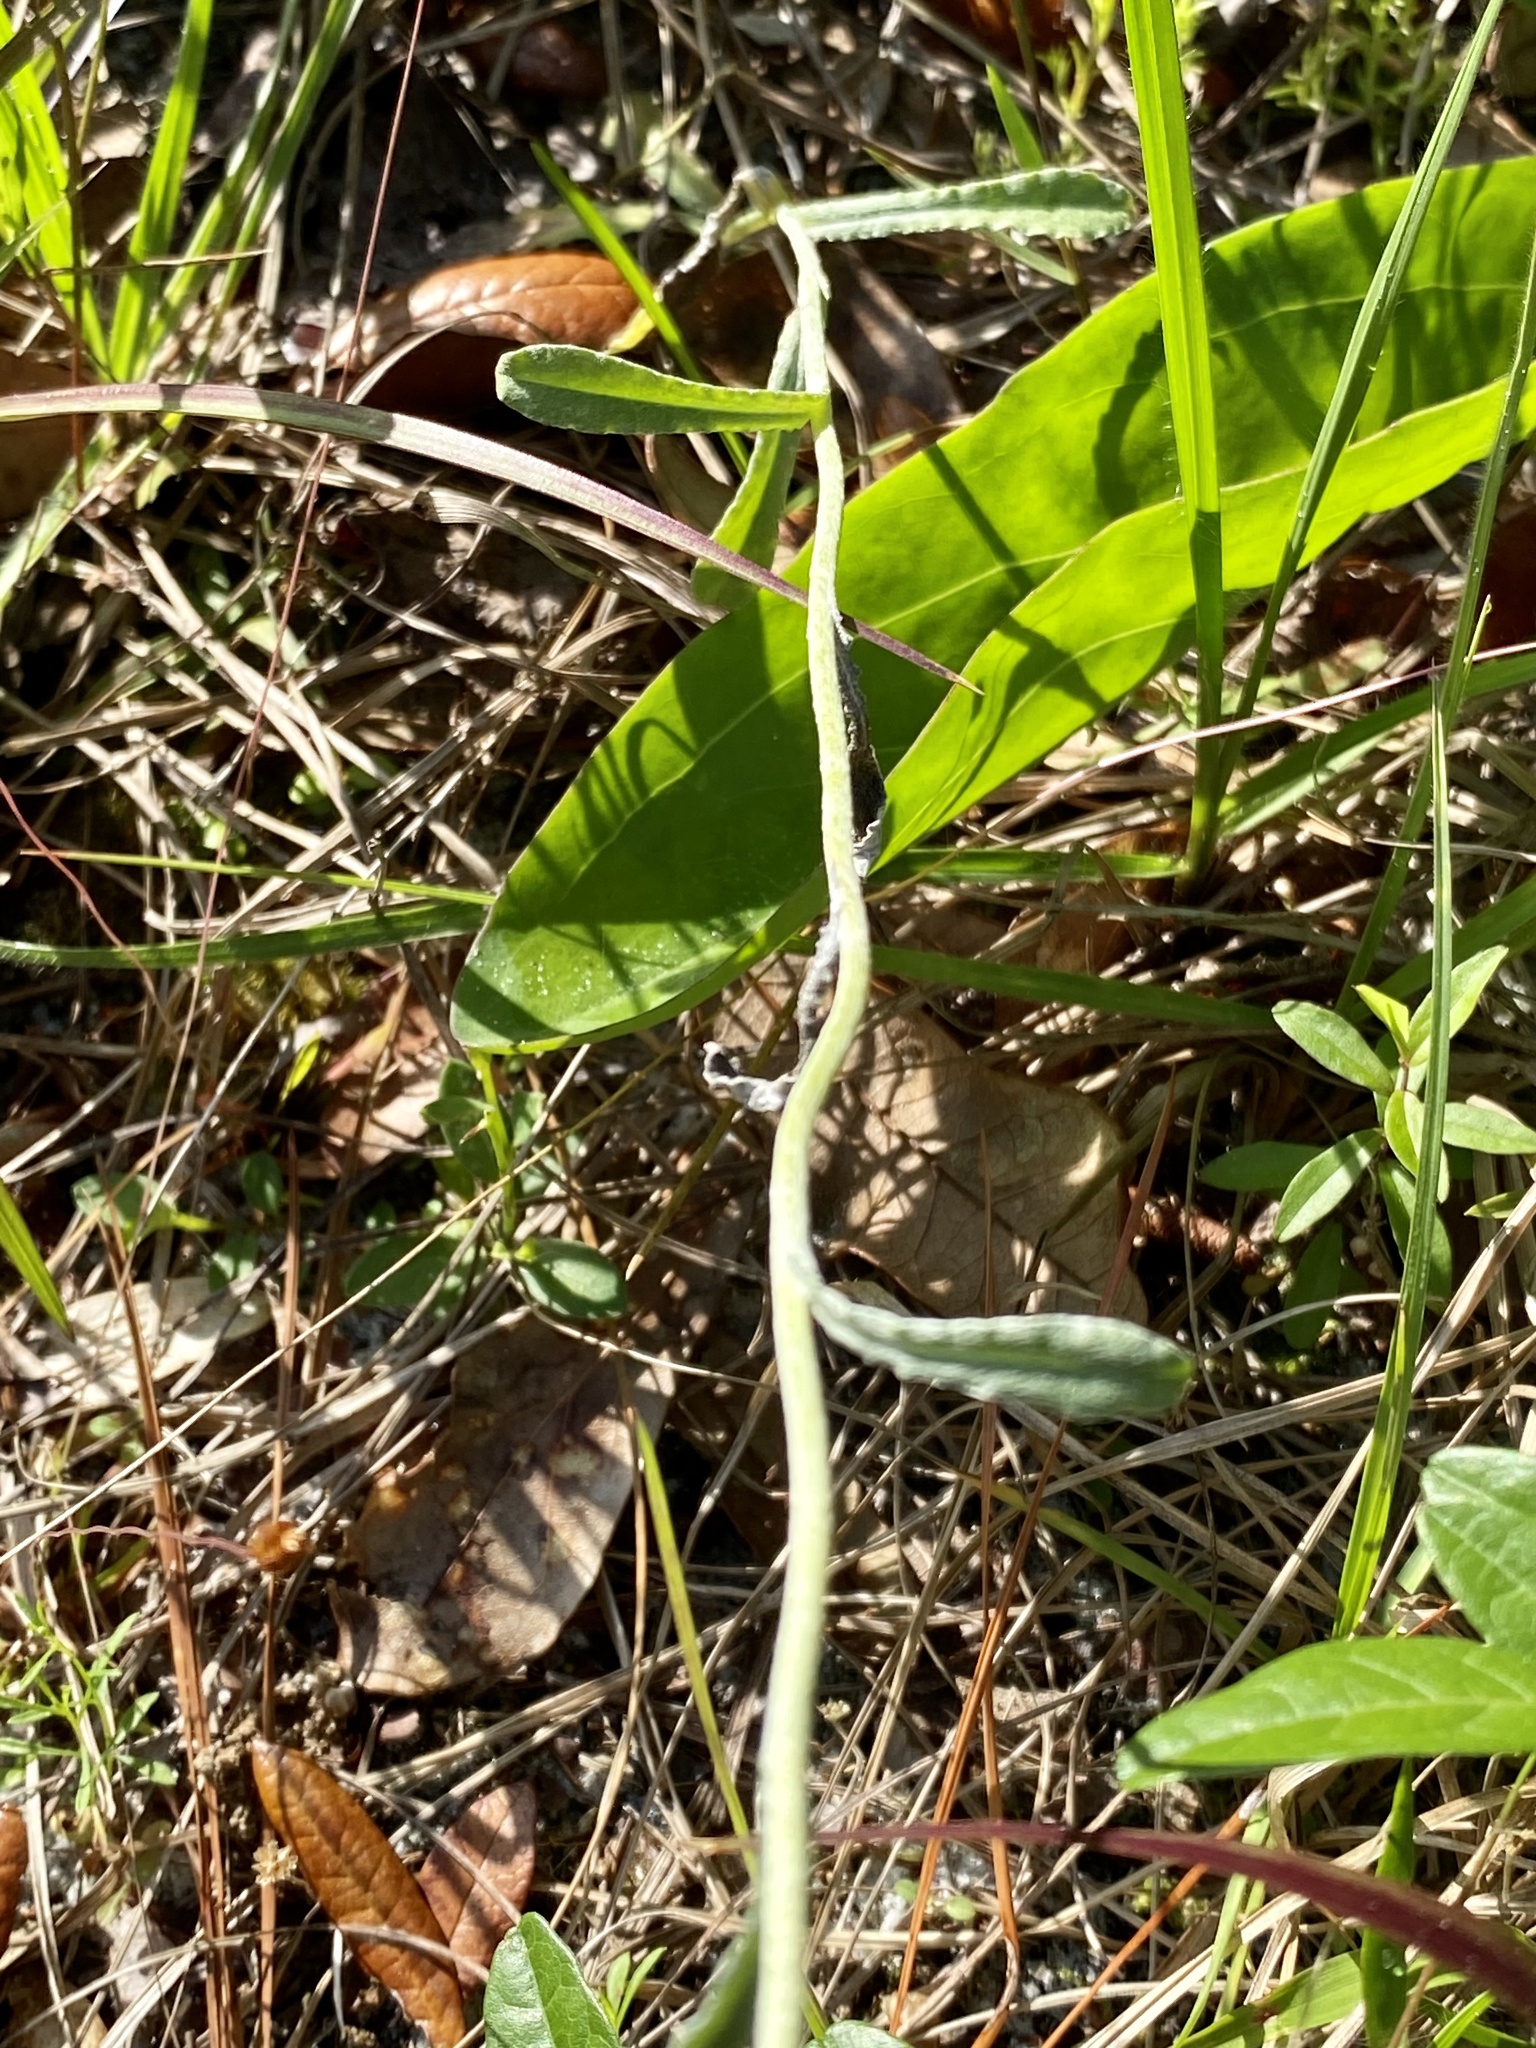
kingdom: Plantae
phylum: Tracheophyta
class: Magnoliopsida
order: Asterales
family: Asteraceae
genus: Gamochaeta
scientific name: Gamochaeta pensylvanica
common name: Pennsylvania everlasting
